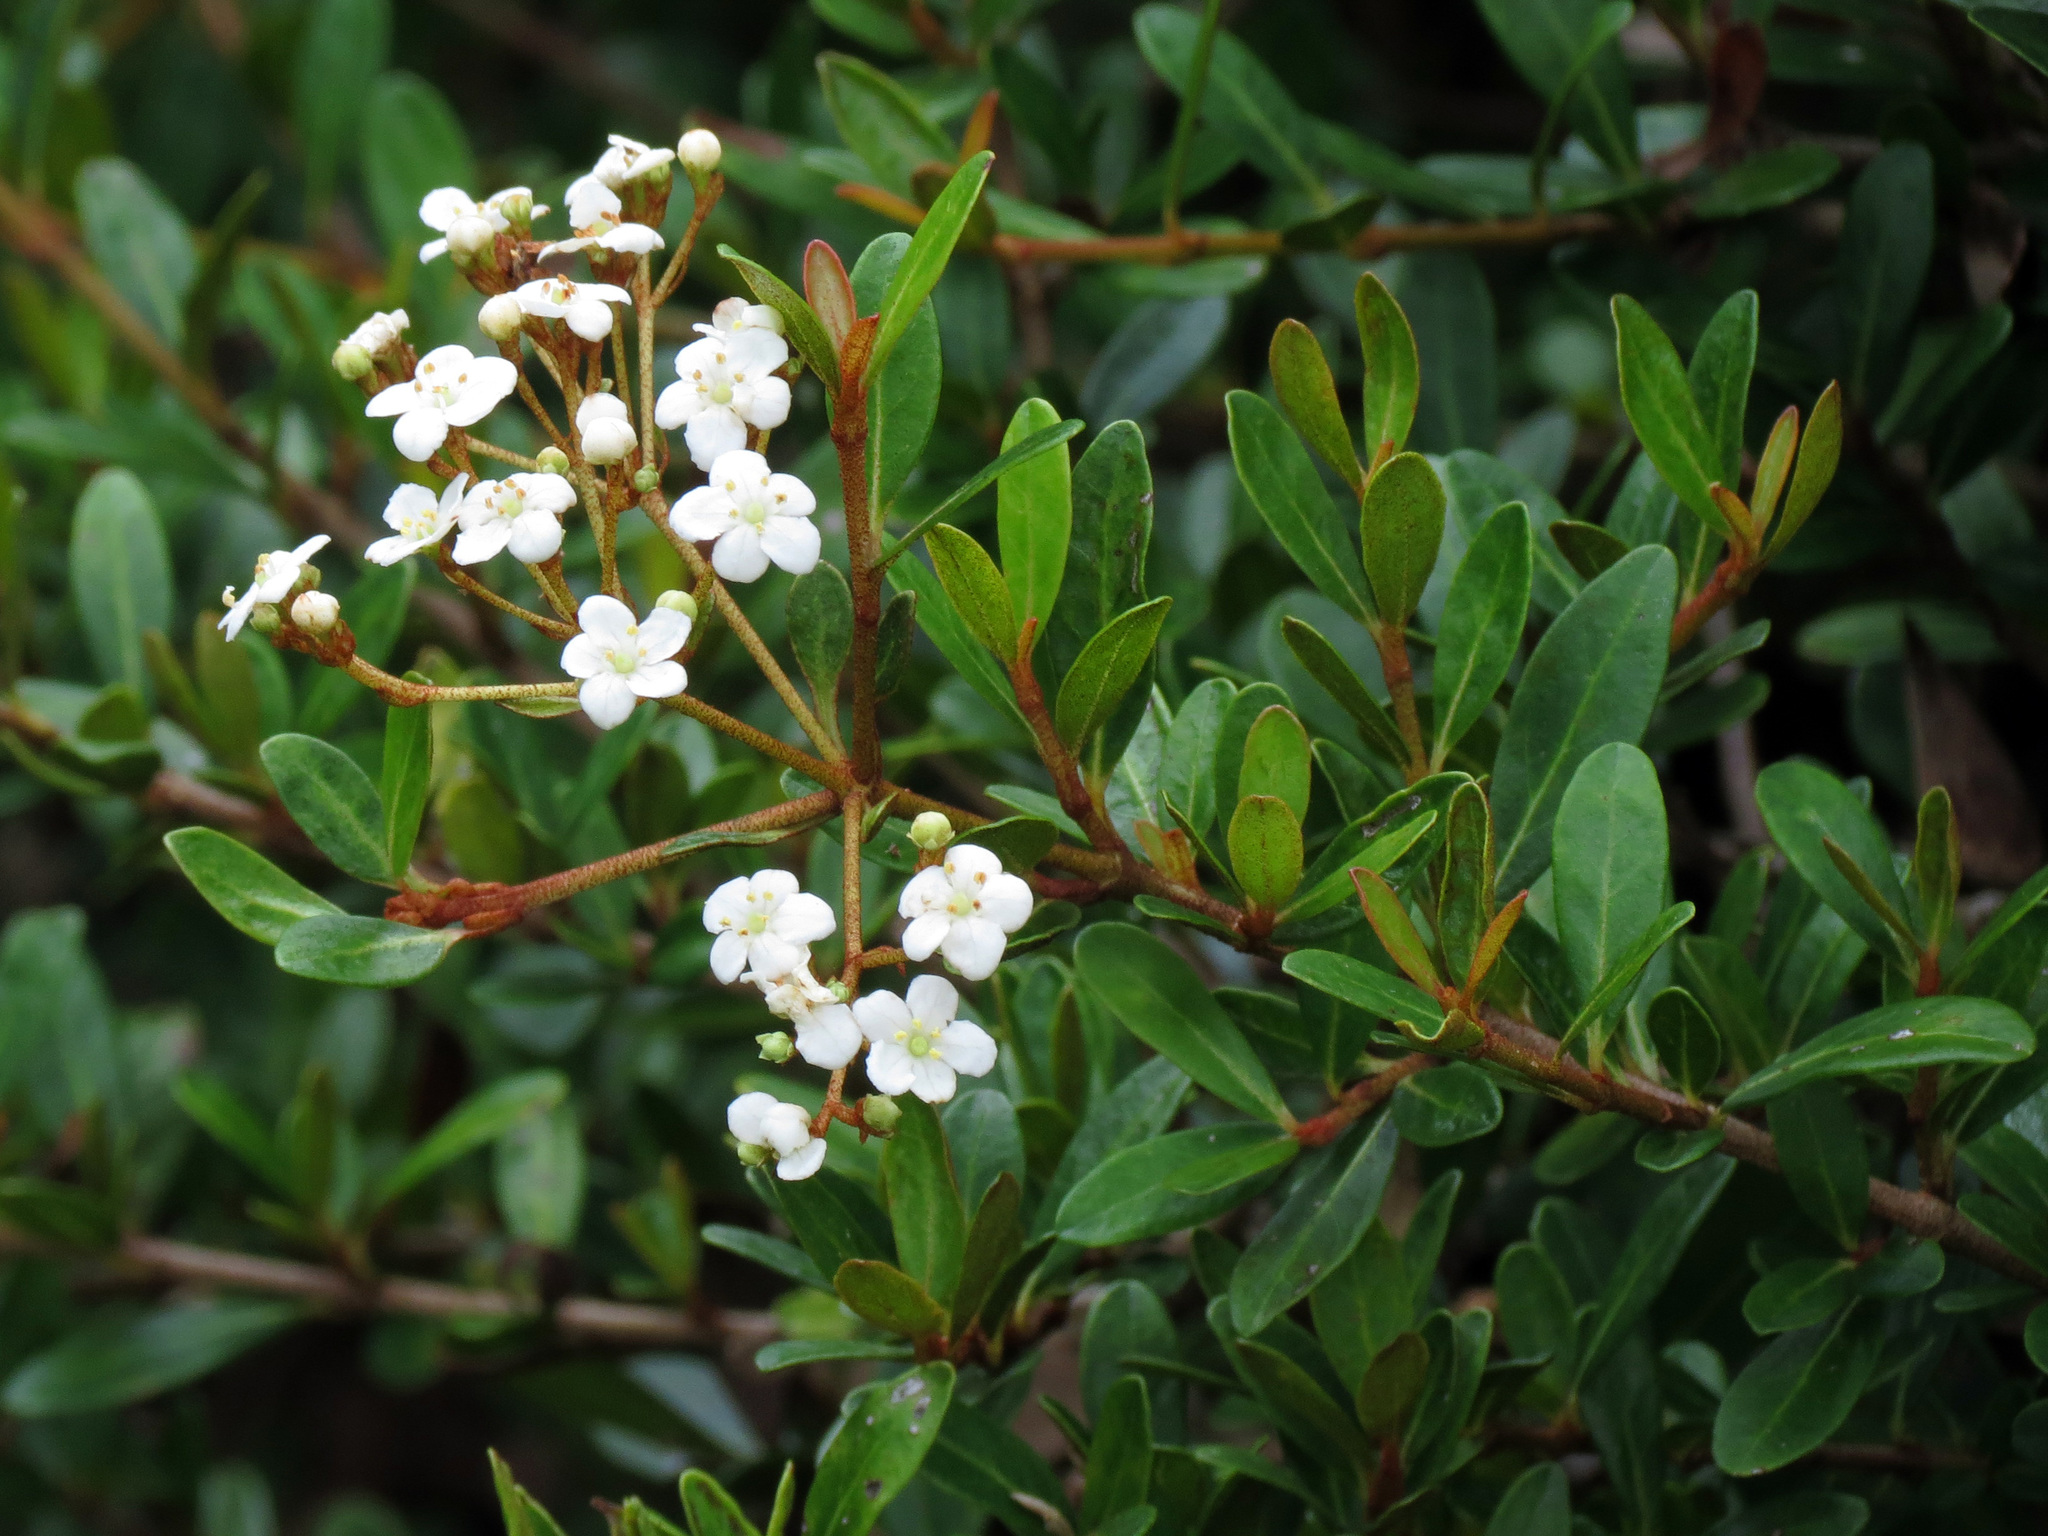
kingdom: Plantae
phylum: Tracheophyta
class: Magnoliopsida
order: Dipsacales
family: Viburnaceae
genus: Viburnum
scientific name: Viburnum obovatum
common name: Walter's viburnum
